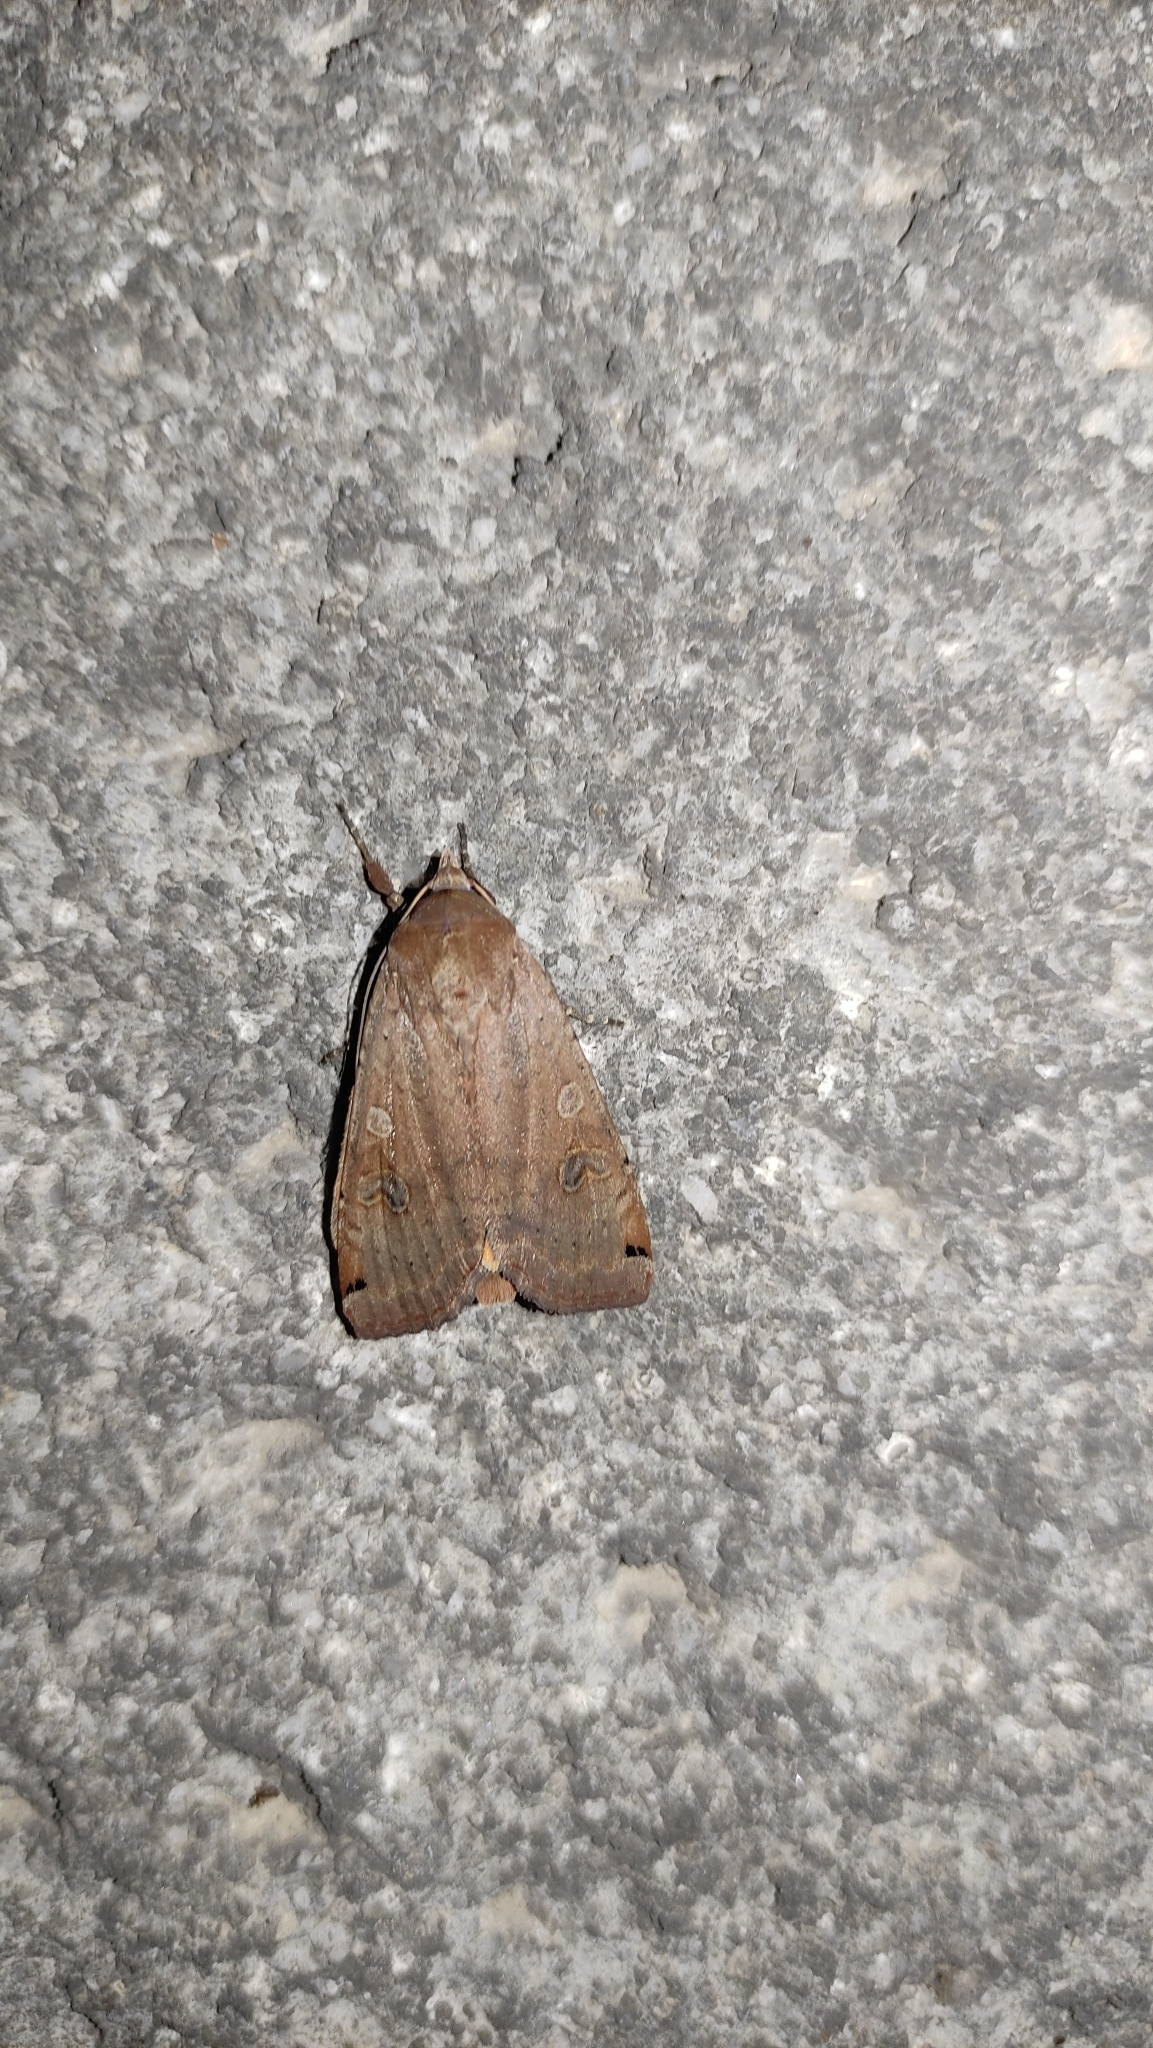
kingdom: Animalia
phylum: Arthropoda
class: Insecta
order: Lepidoptera
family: Noctuidae
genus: Noctua
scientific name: Noctua pronuba
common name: Large yellow underwing
